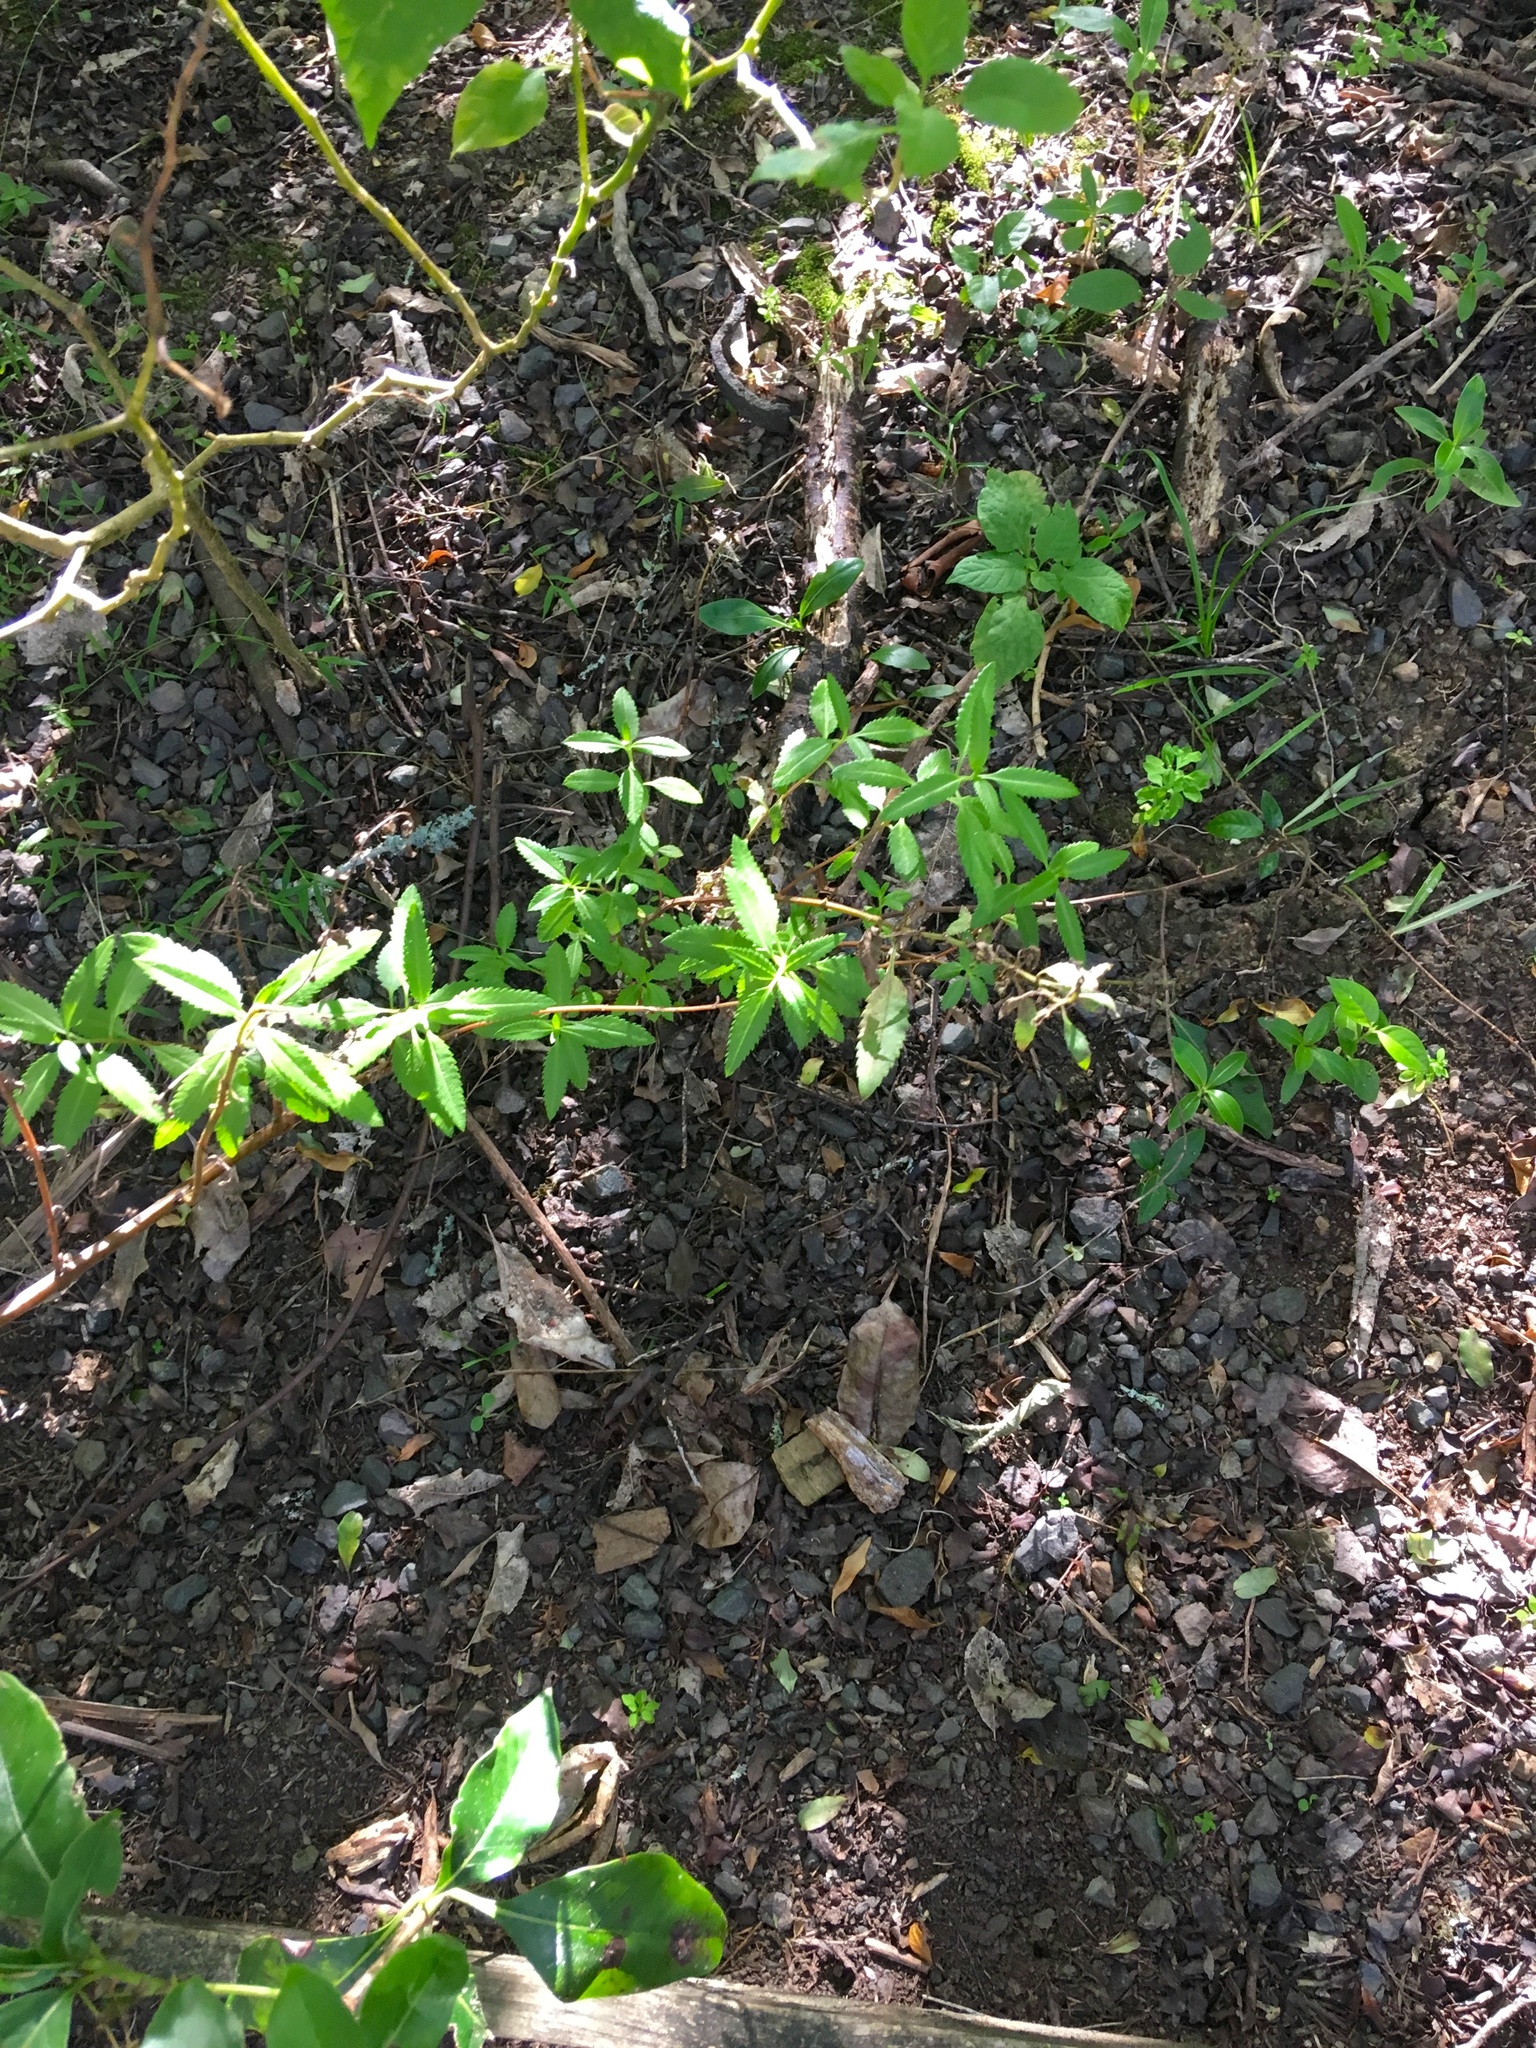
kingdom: Plantae
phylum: Tracheophyta
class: Magnoliopsida
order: Saxifragales
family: Haloragaceae
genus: Haloragis
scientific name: Haloragis erecta
